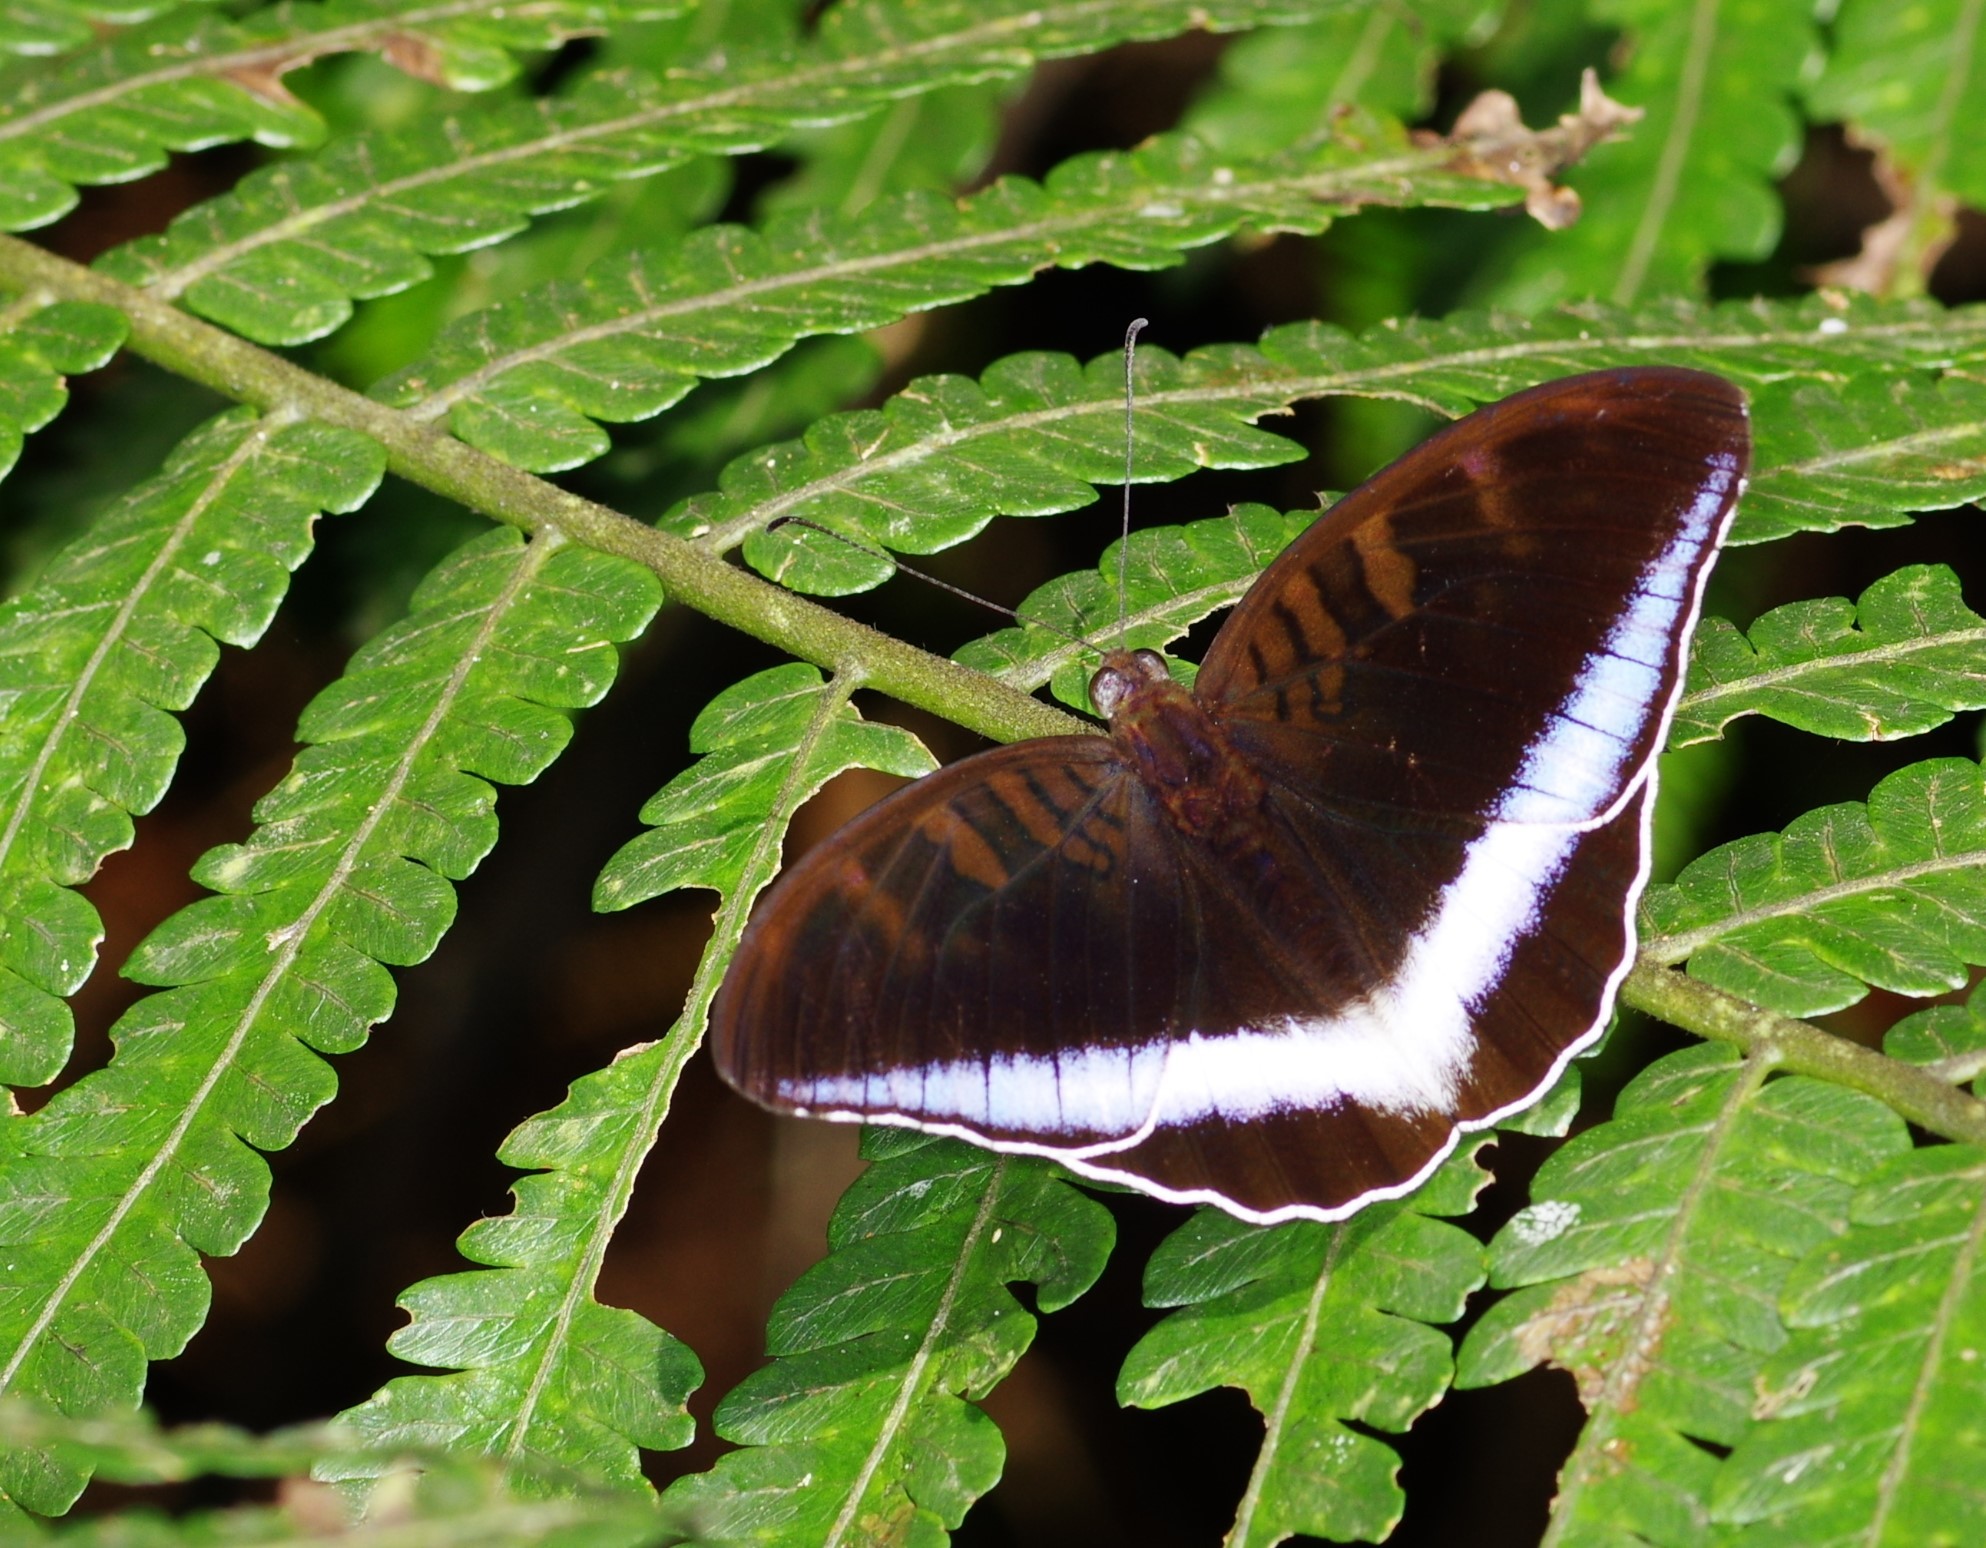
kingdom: Animalia
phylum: Arthropoda
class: Insecta
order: Lepidoptera
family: Nymphalidae
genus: Tanaecia
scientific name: Tanaecia iapis
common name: Horsfield's baron
